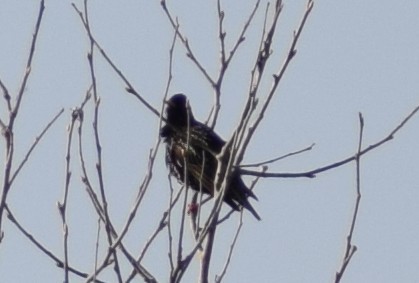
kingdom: Animalia
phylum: Chordata
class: Aves
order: Passeriformes
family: Sturnidae
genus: Sturnus
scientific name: Sturnus vulgaris
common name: Common starling
